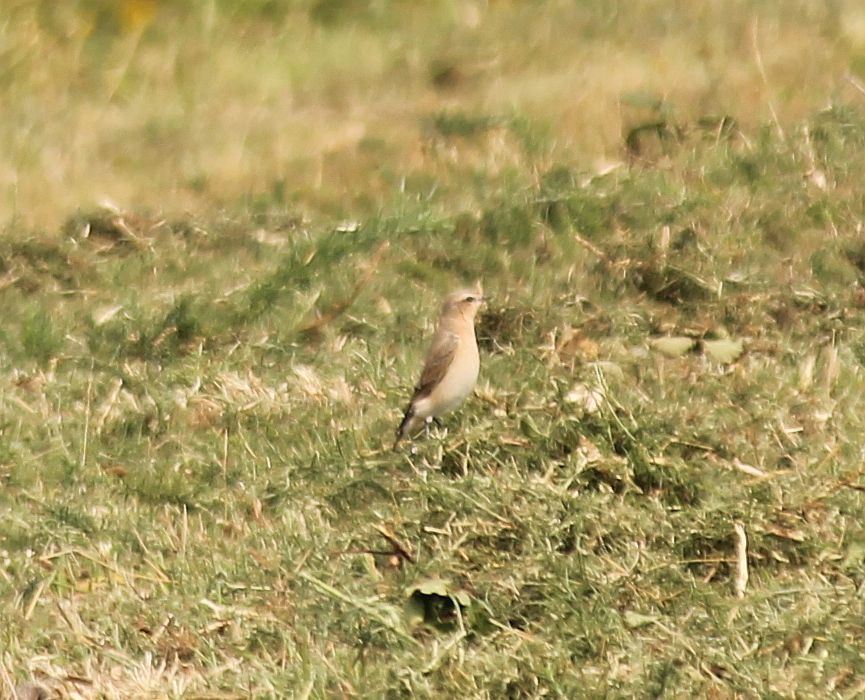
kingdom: Animalia
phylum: Chordata
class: Aves
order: Passeriformes
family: Muscicapidae
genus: Oenanthe
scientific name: Oenanthe oenanthe
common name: Northern wheatear
